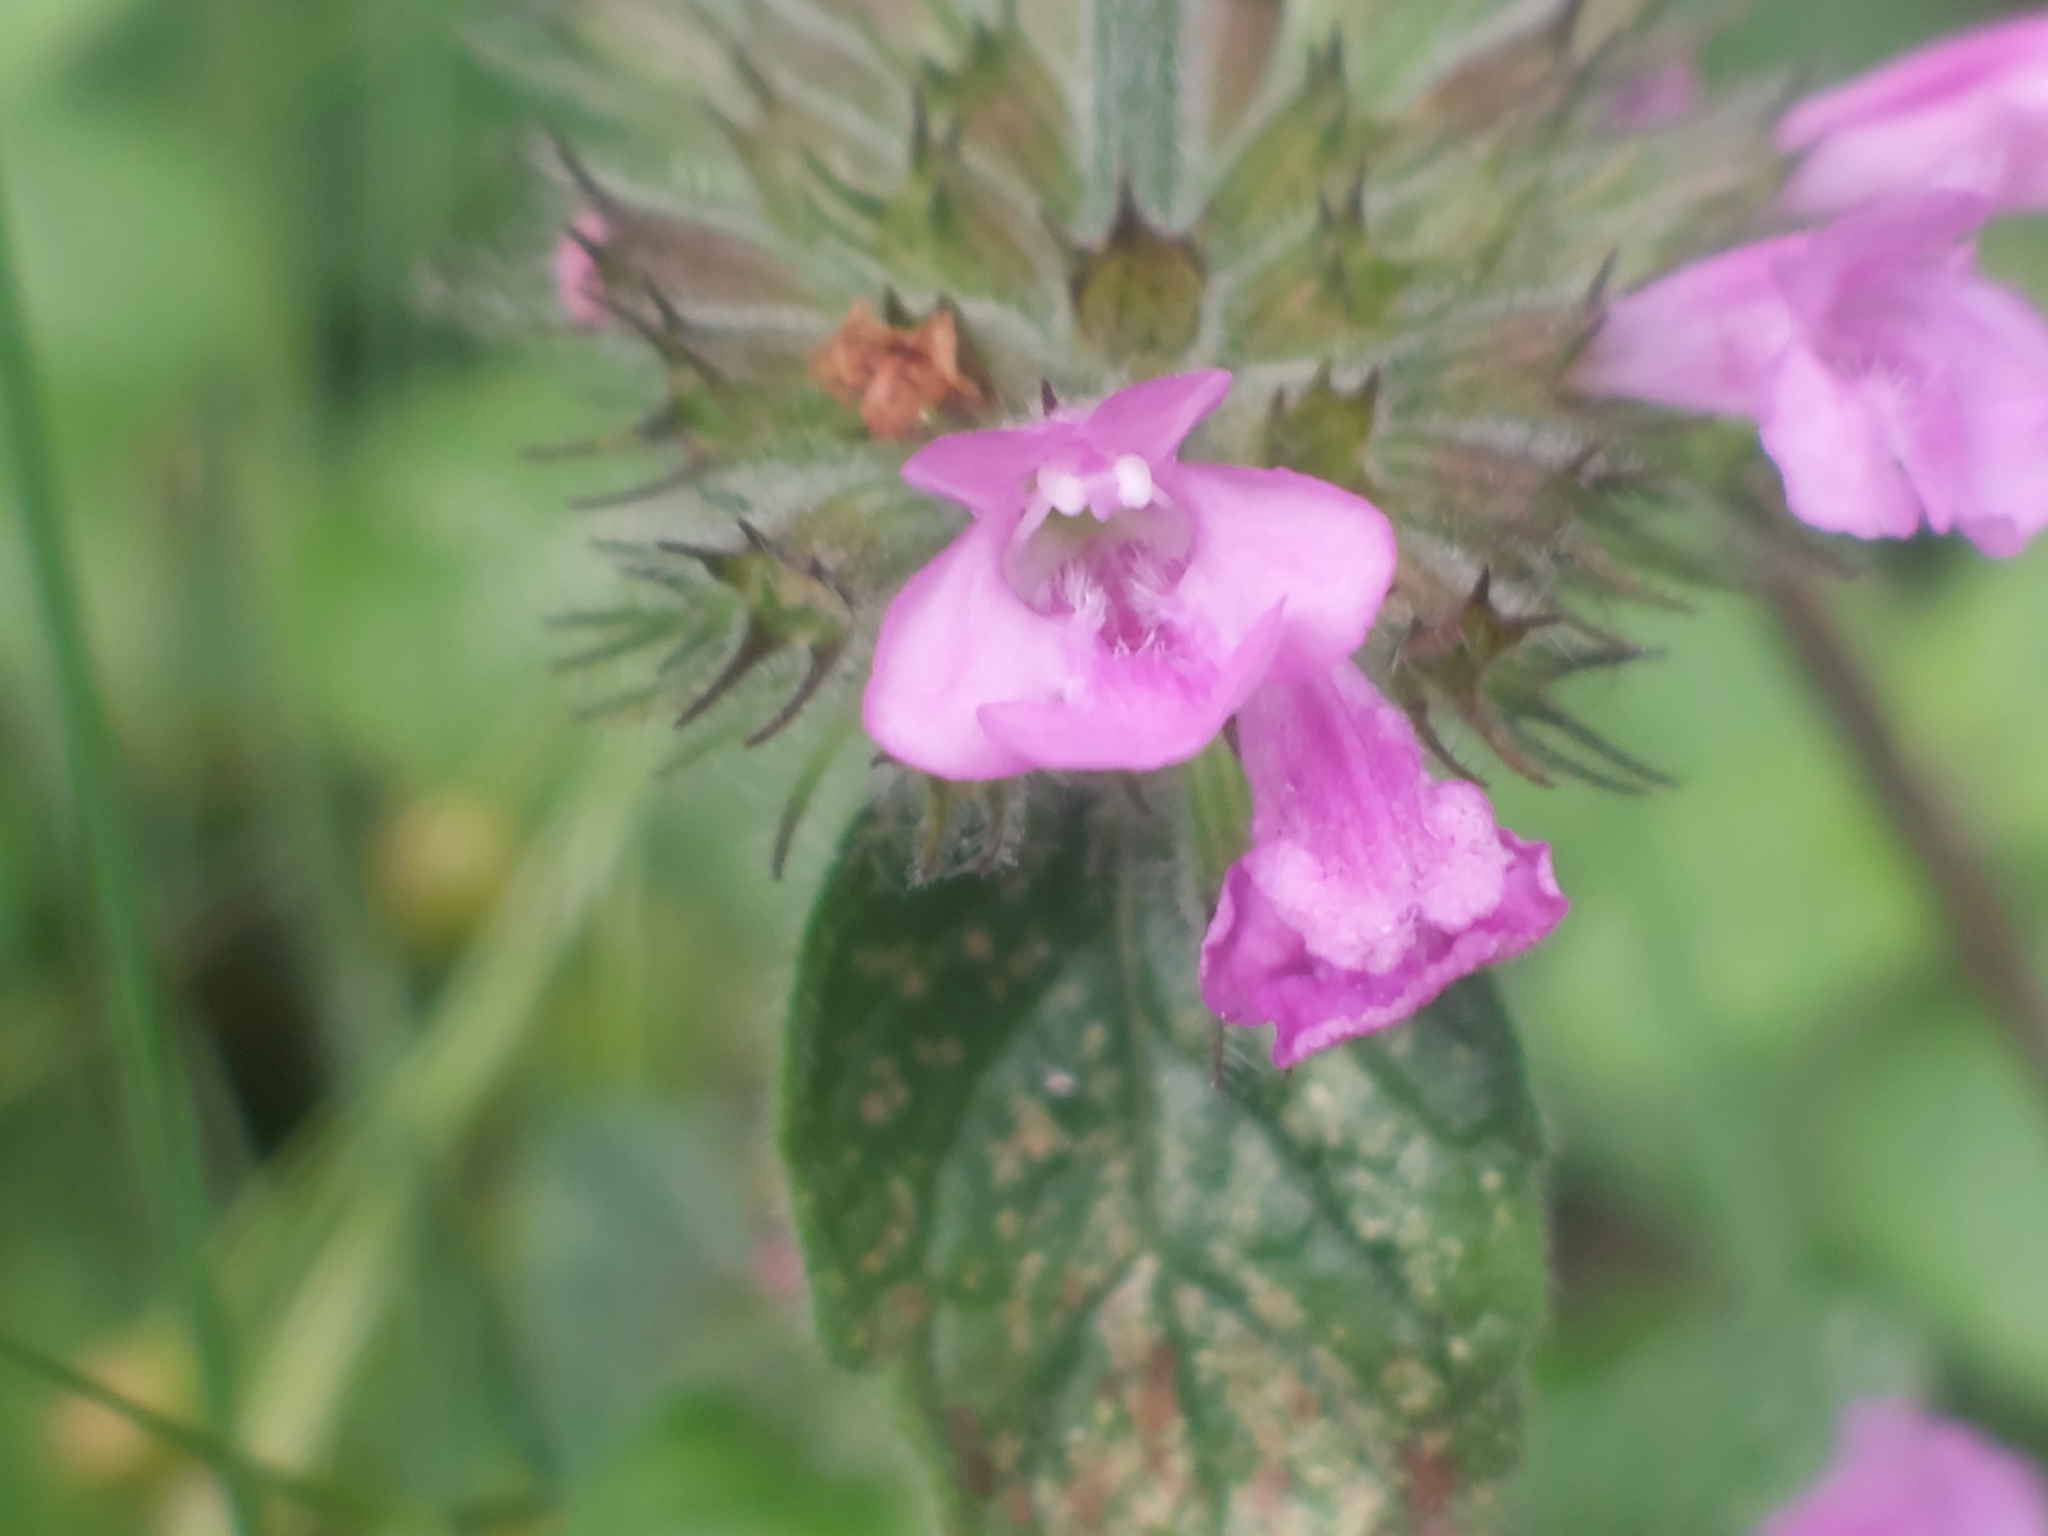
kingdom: Plantae
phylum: Tracheophyta
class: Magnoliopsida
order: Lamiales
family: Lamiaceae
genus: Clinopodium
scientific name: Clinopodium vulgare
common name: Wild basil
